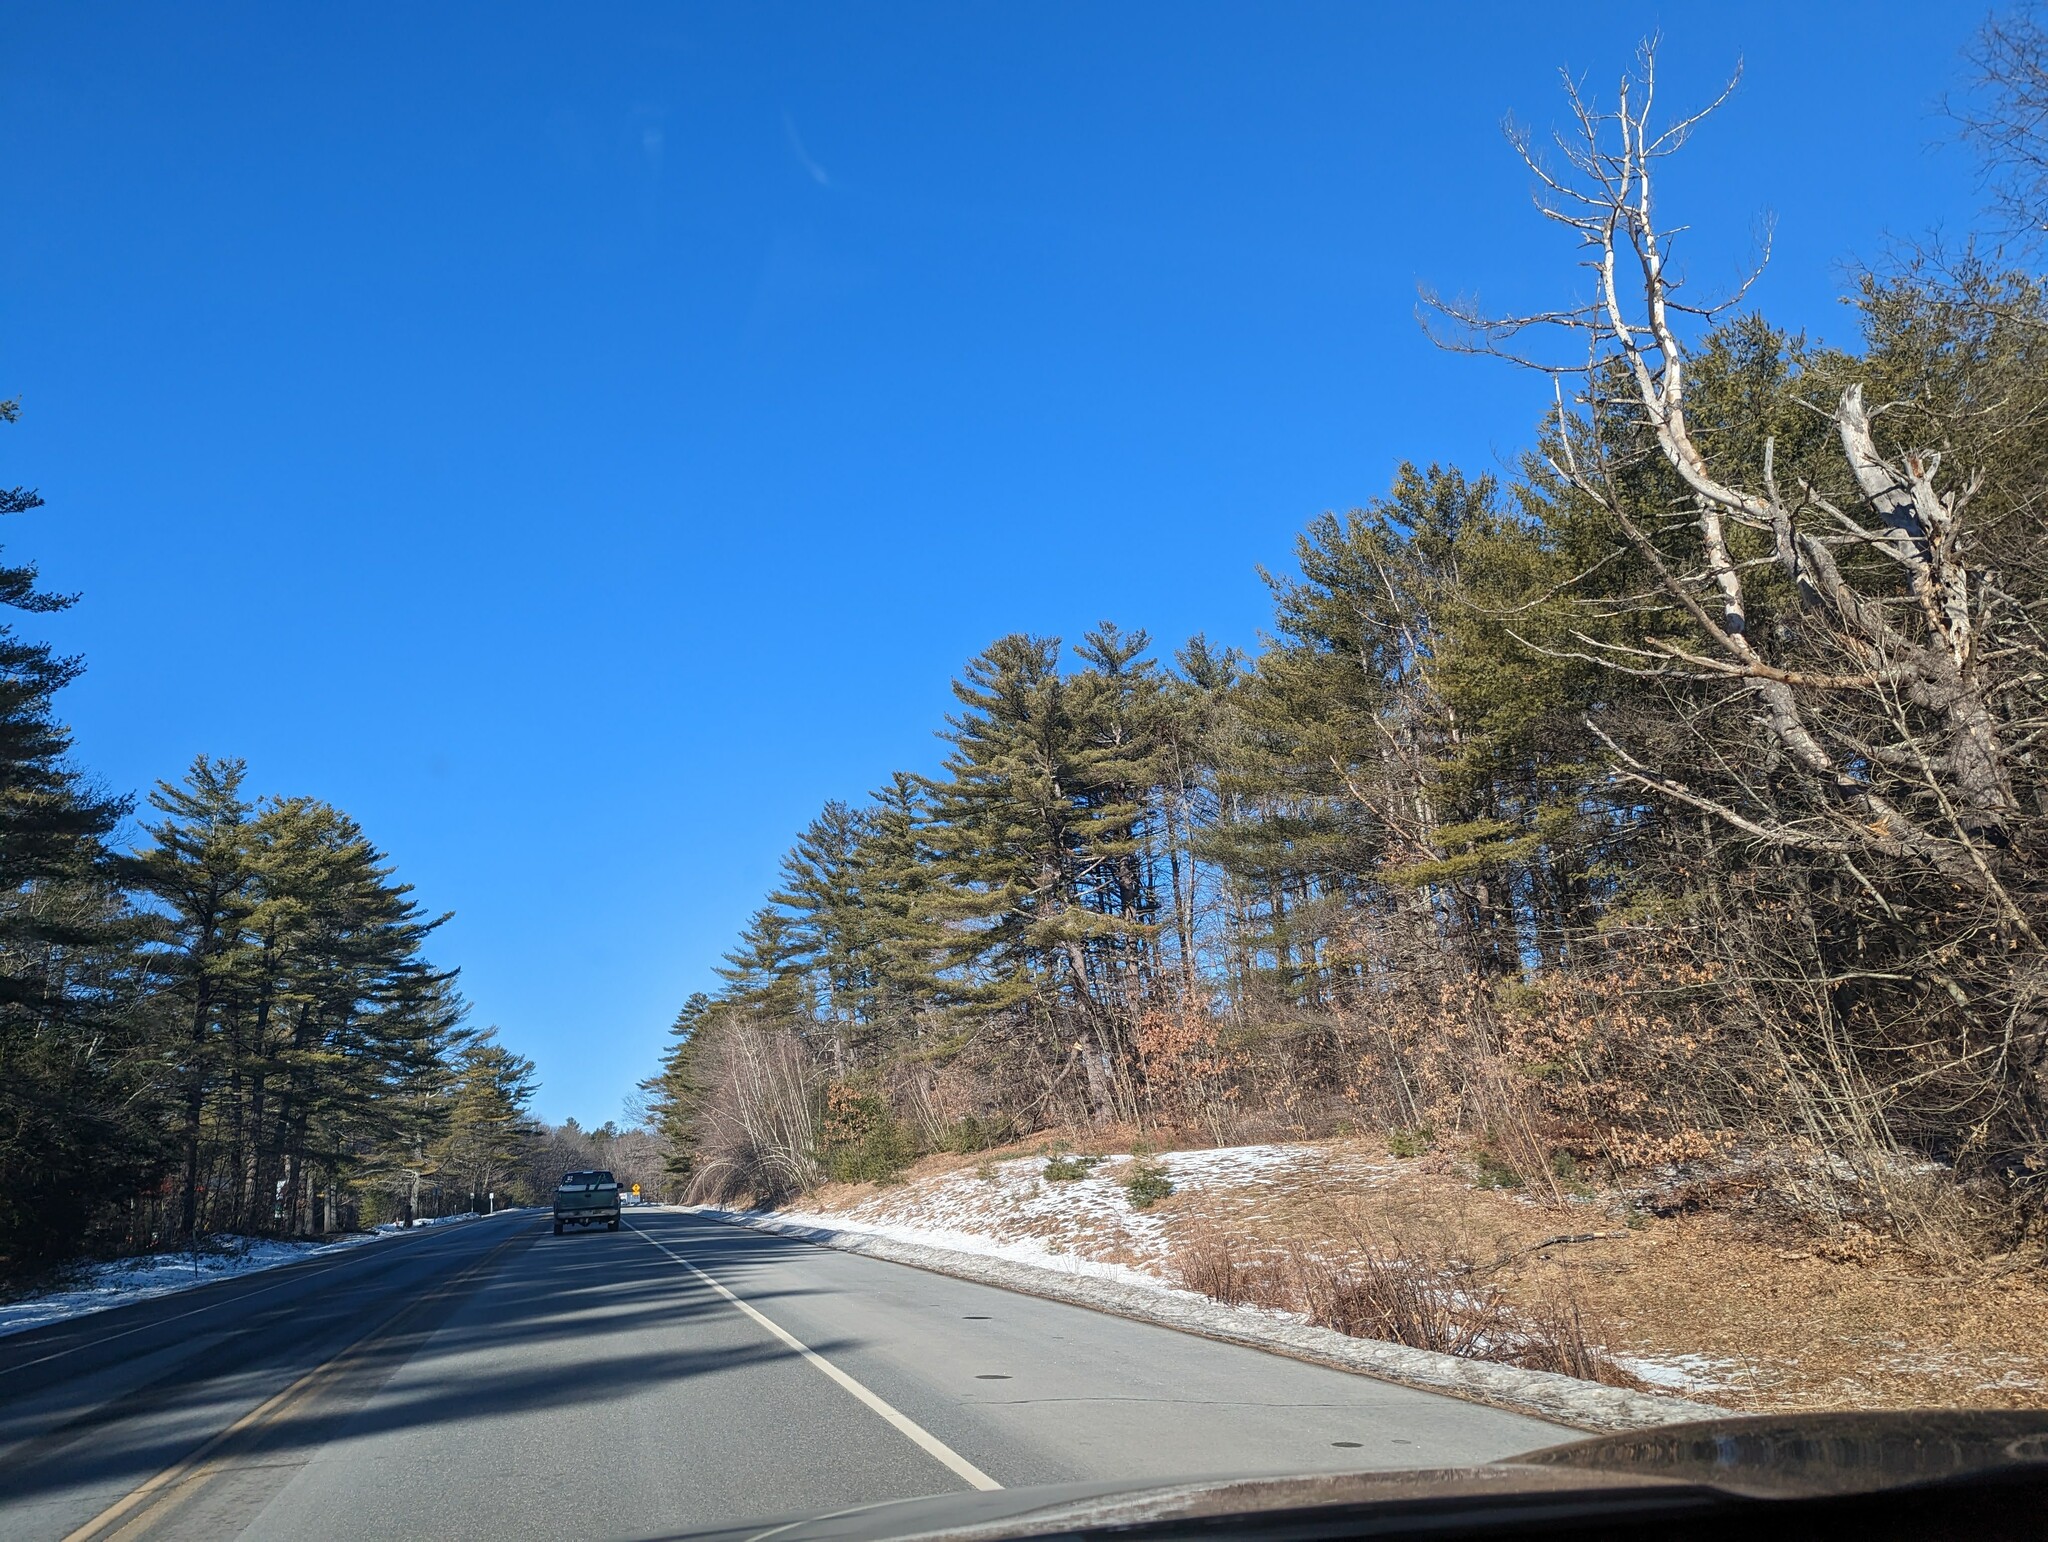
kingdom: Plantae
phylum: Tracheophyta
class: Pinopsida
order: Pinales
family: Pinaceae
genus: Pinus
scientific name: Pinus strobus
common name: Weymouth pine
